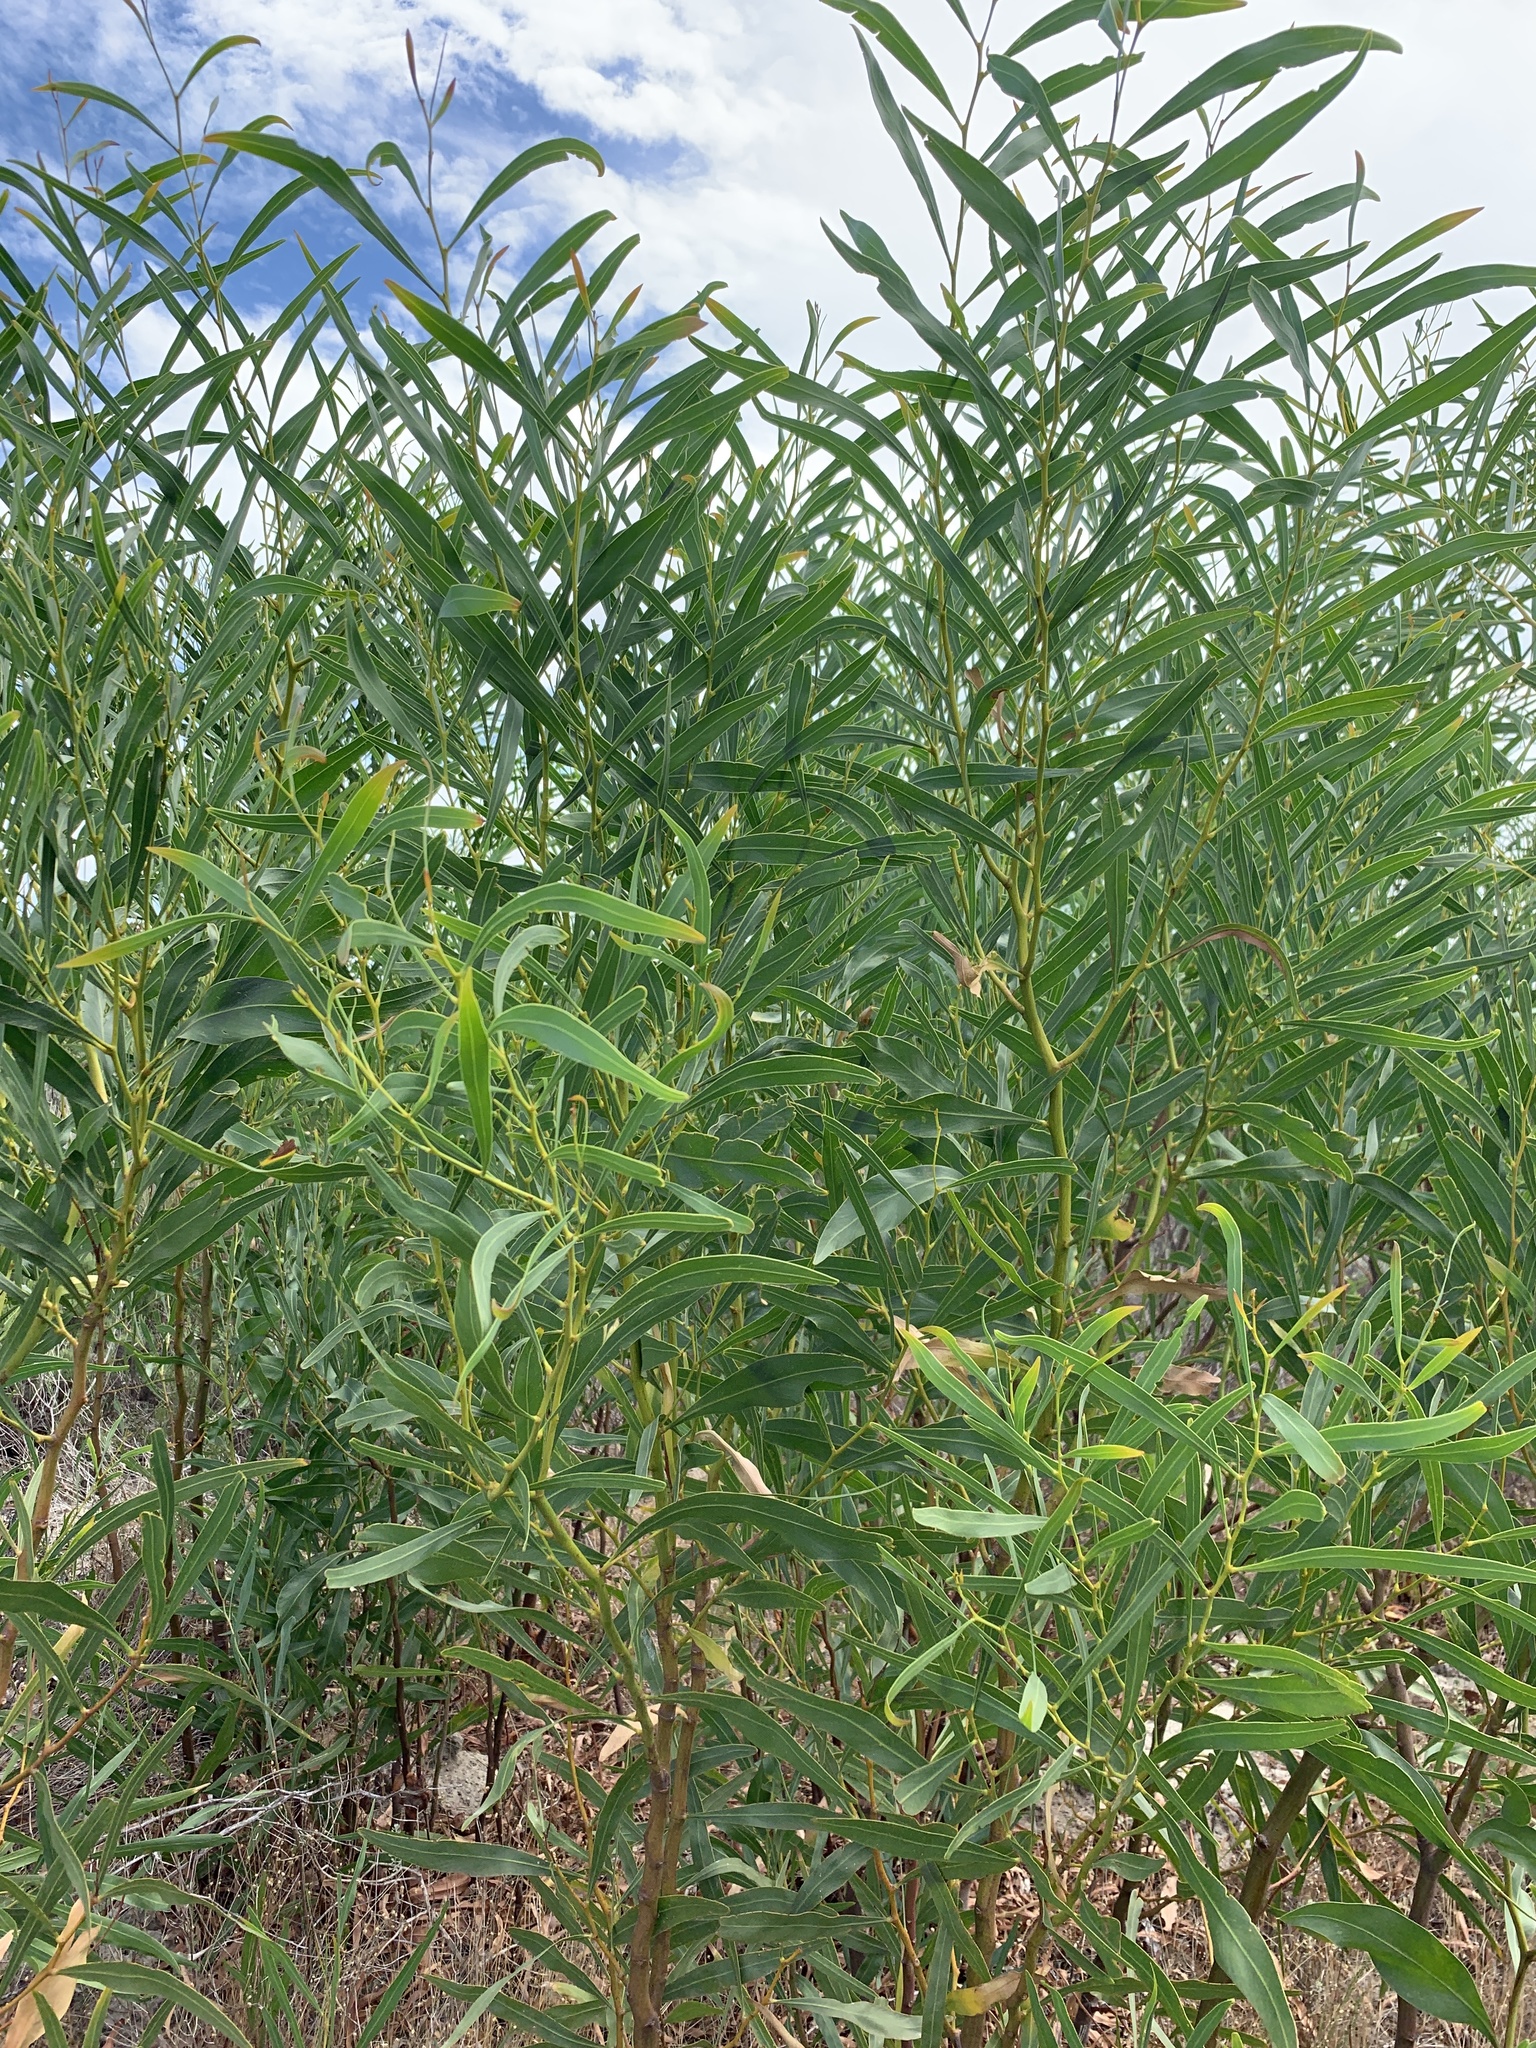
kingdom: Plantae
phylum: Tracheophyta
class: Magnoliopsida
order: Fabales
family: Fabaceae
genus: Acacia
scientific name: Acacia saligna
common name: Orange wattle
